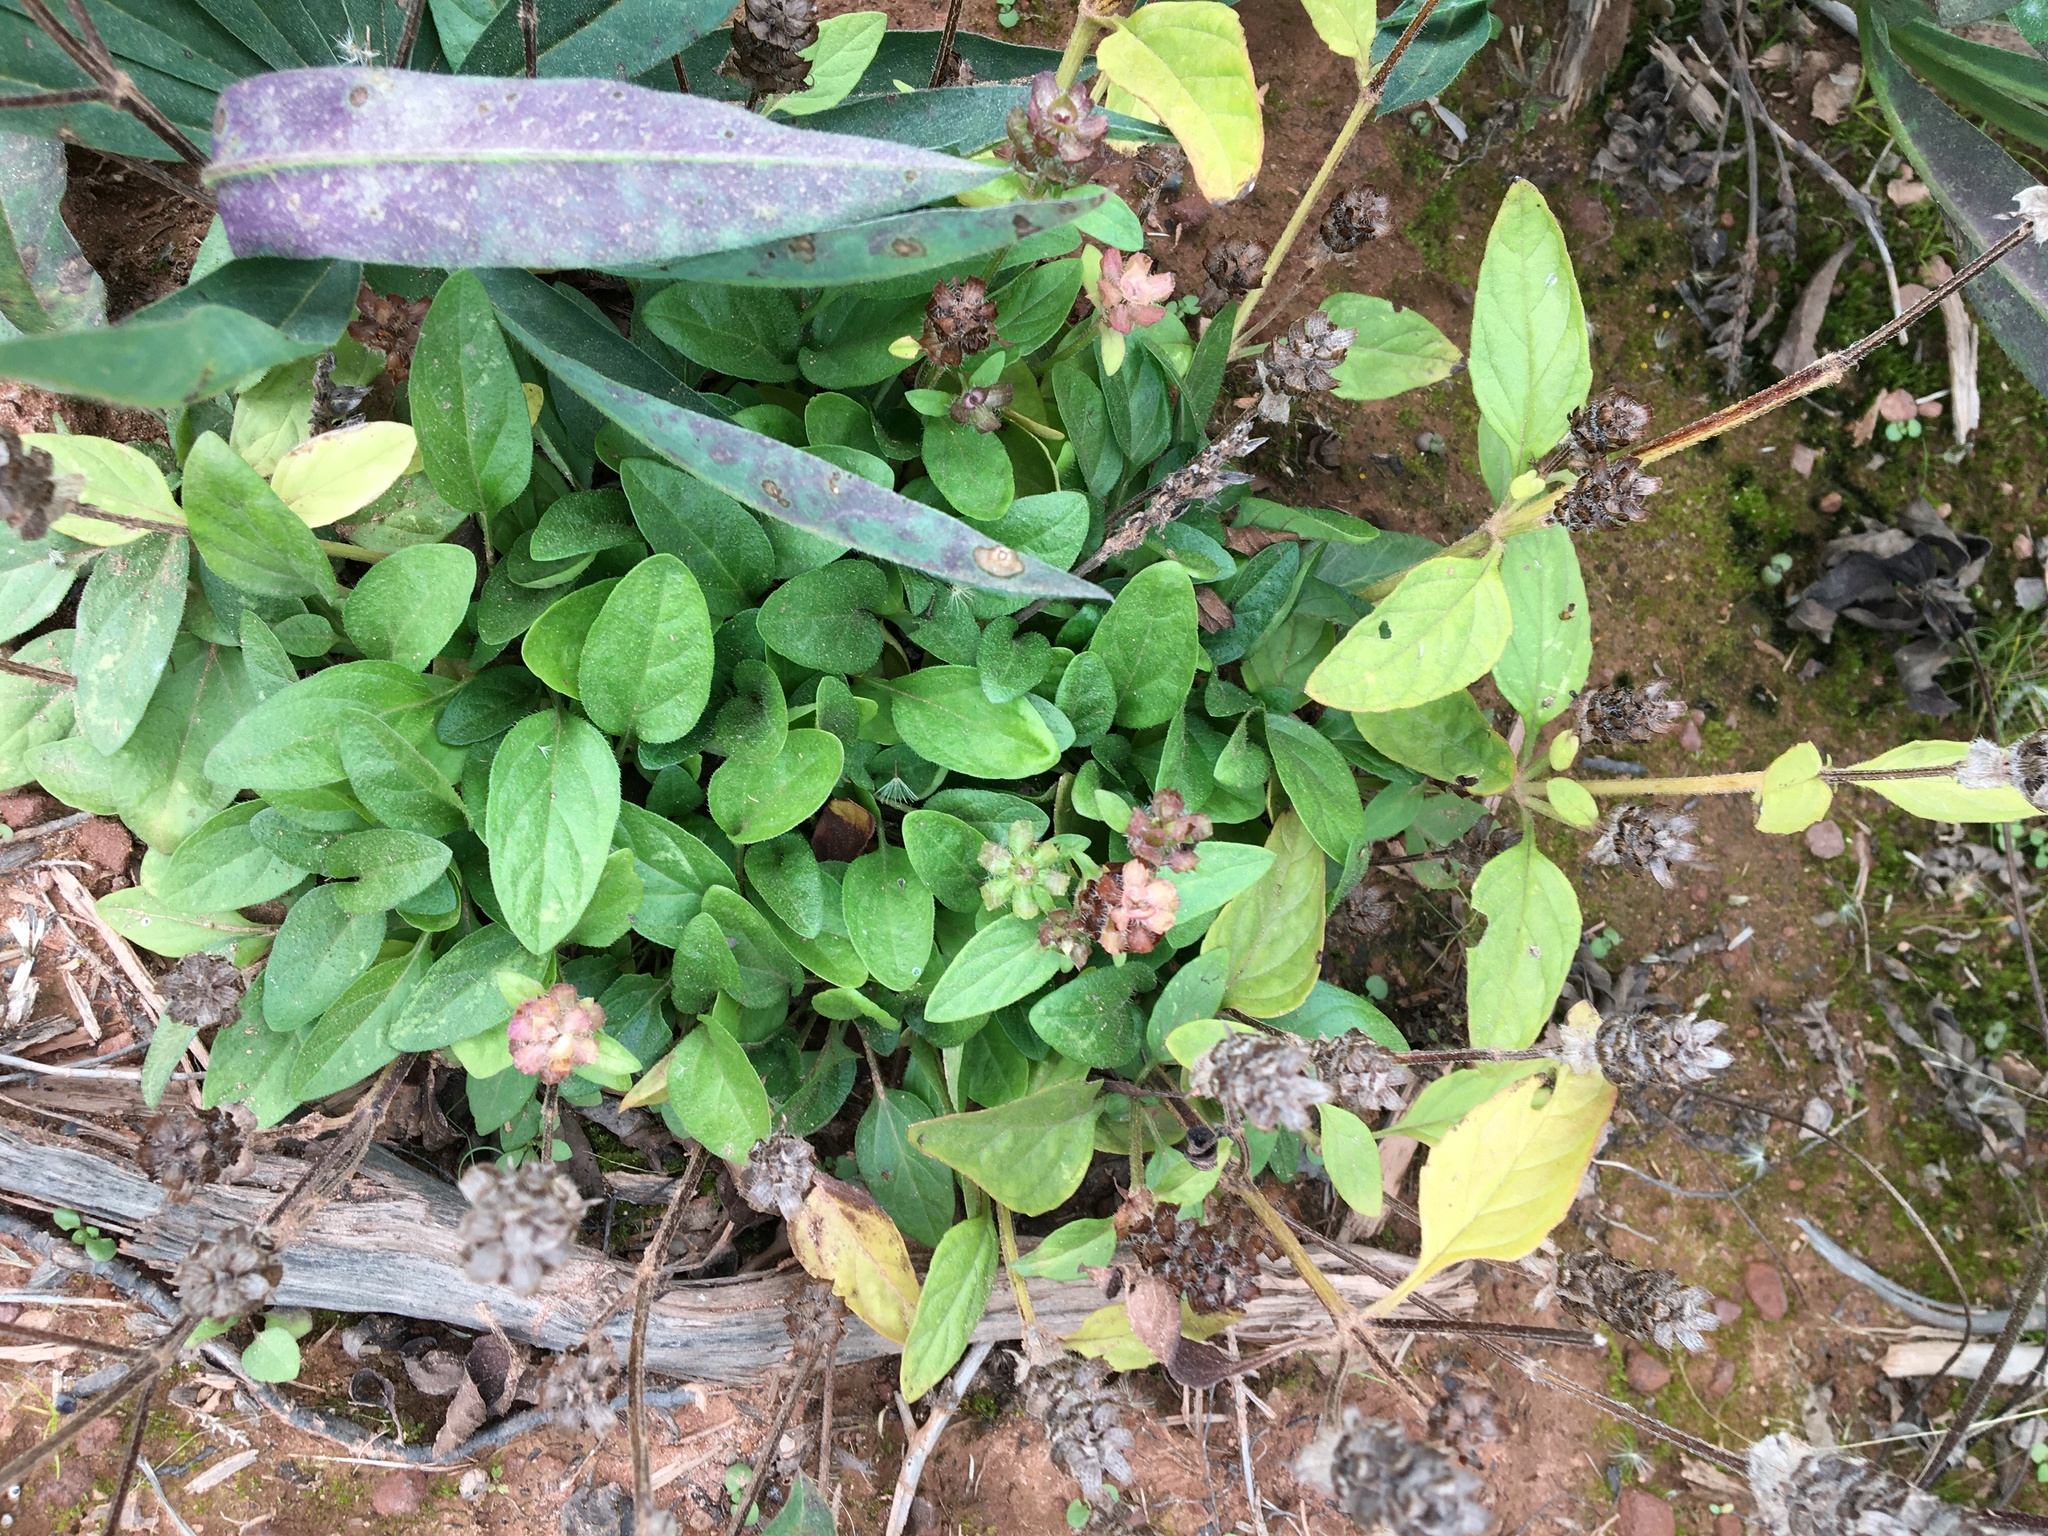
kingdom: Plantae
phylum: Tracheophyta
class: Magnoliopsida
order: Lamiales
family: Lamiaceae
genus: Prunella
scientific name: Prunella vulgaris
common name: Heal-all
